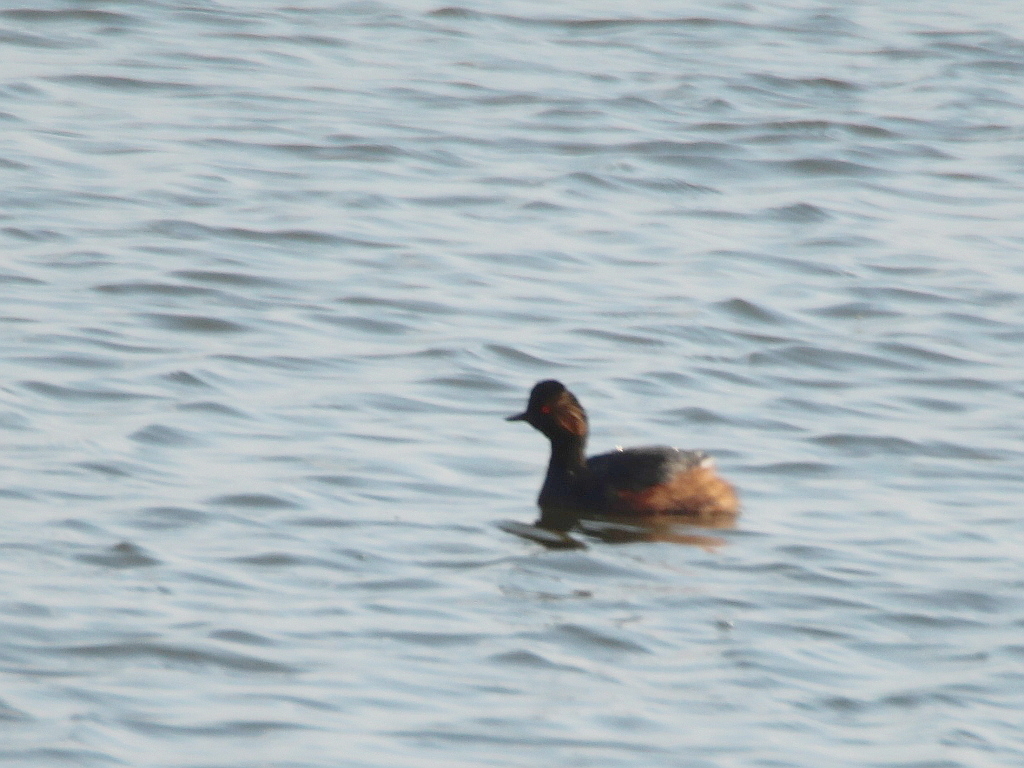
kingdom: Animalia
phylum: Chordata
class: Aves
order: Podicipediformes
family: Podicipedidae
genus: Podiceps
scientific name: Podiceps nigricollis
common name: Black-necked grebe
